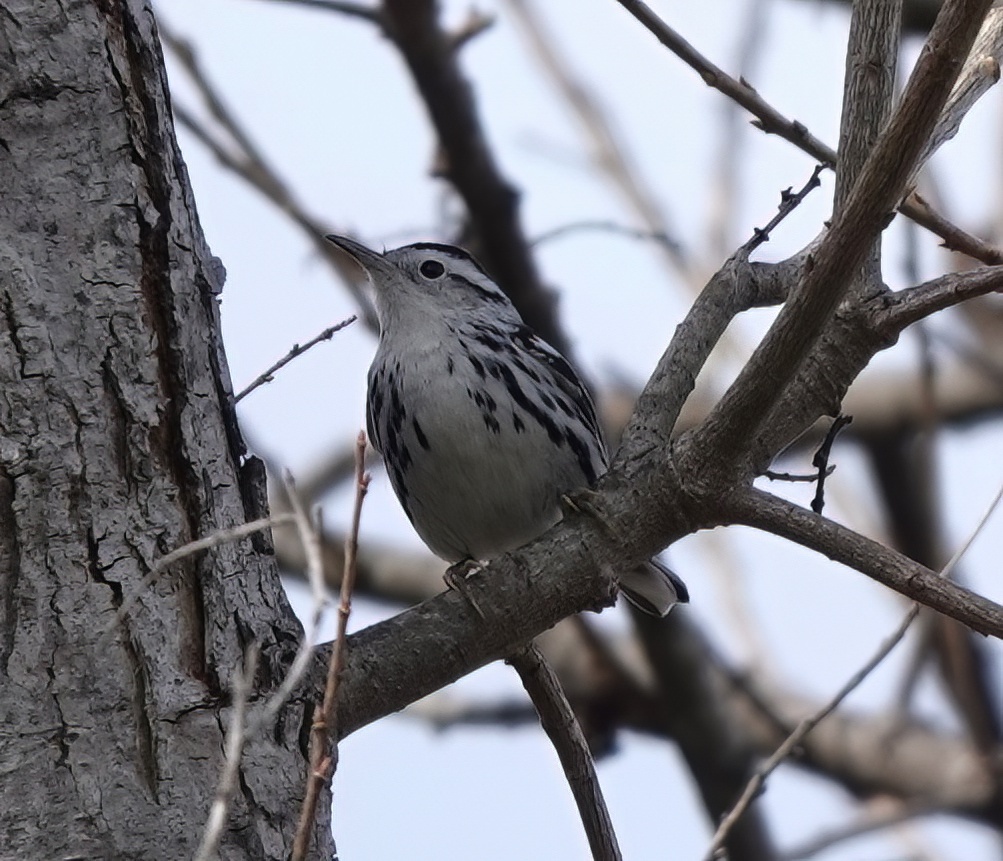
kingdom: Animalia
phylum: Chordata
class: Aves
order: Passeriformes
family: Parulidae
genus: Mniotilta
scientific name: Mniotilta varia
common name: Black-and-white warbler
